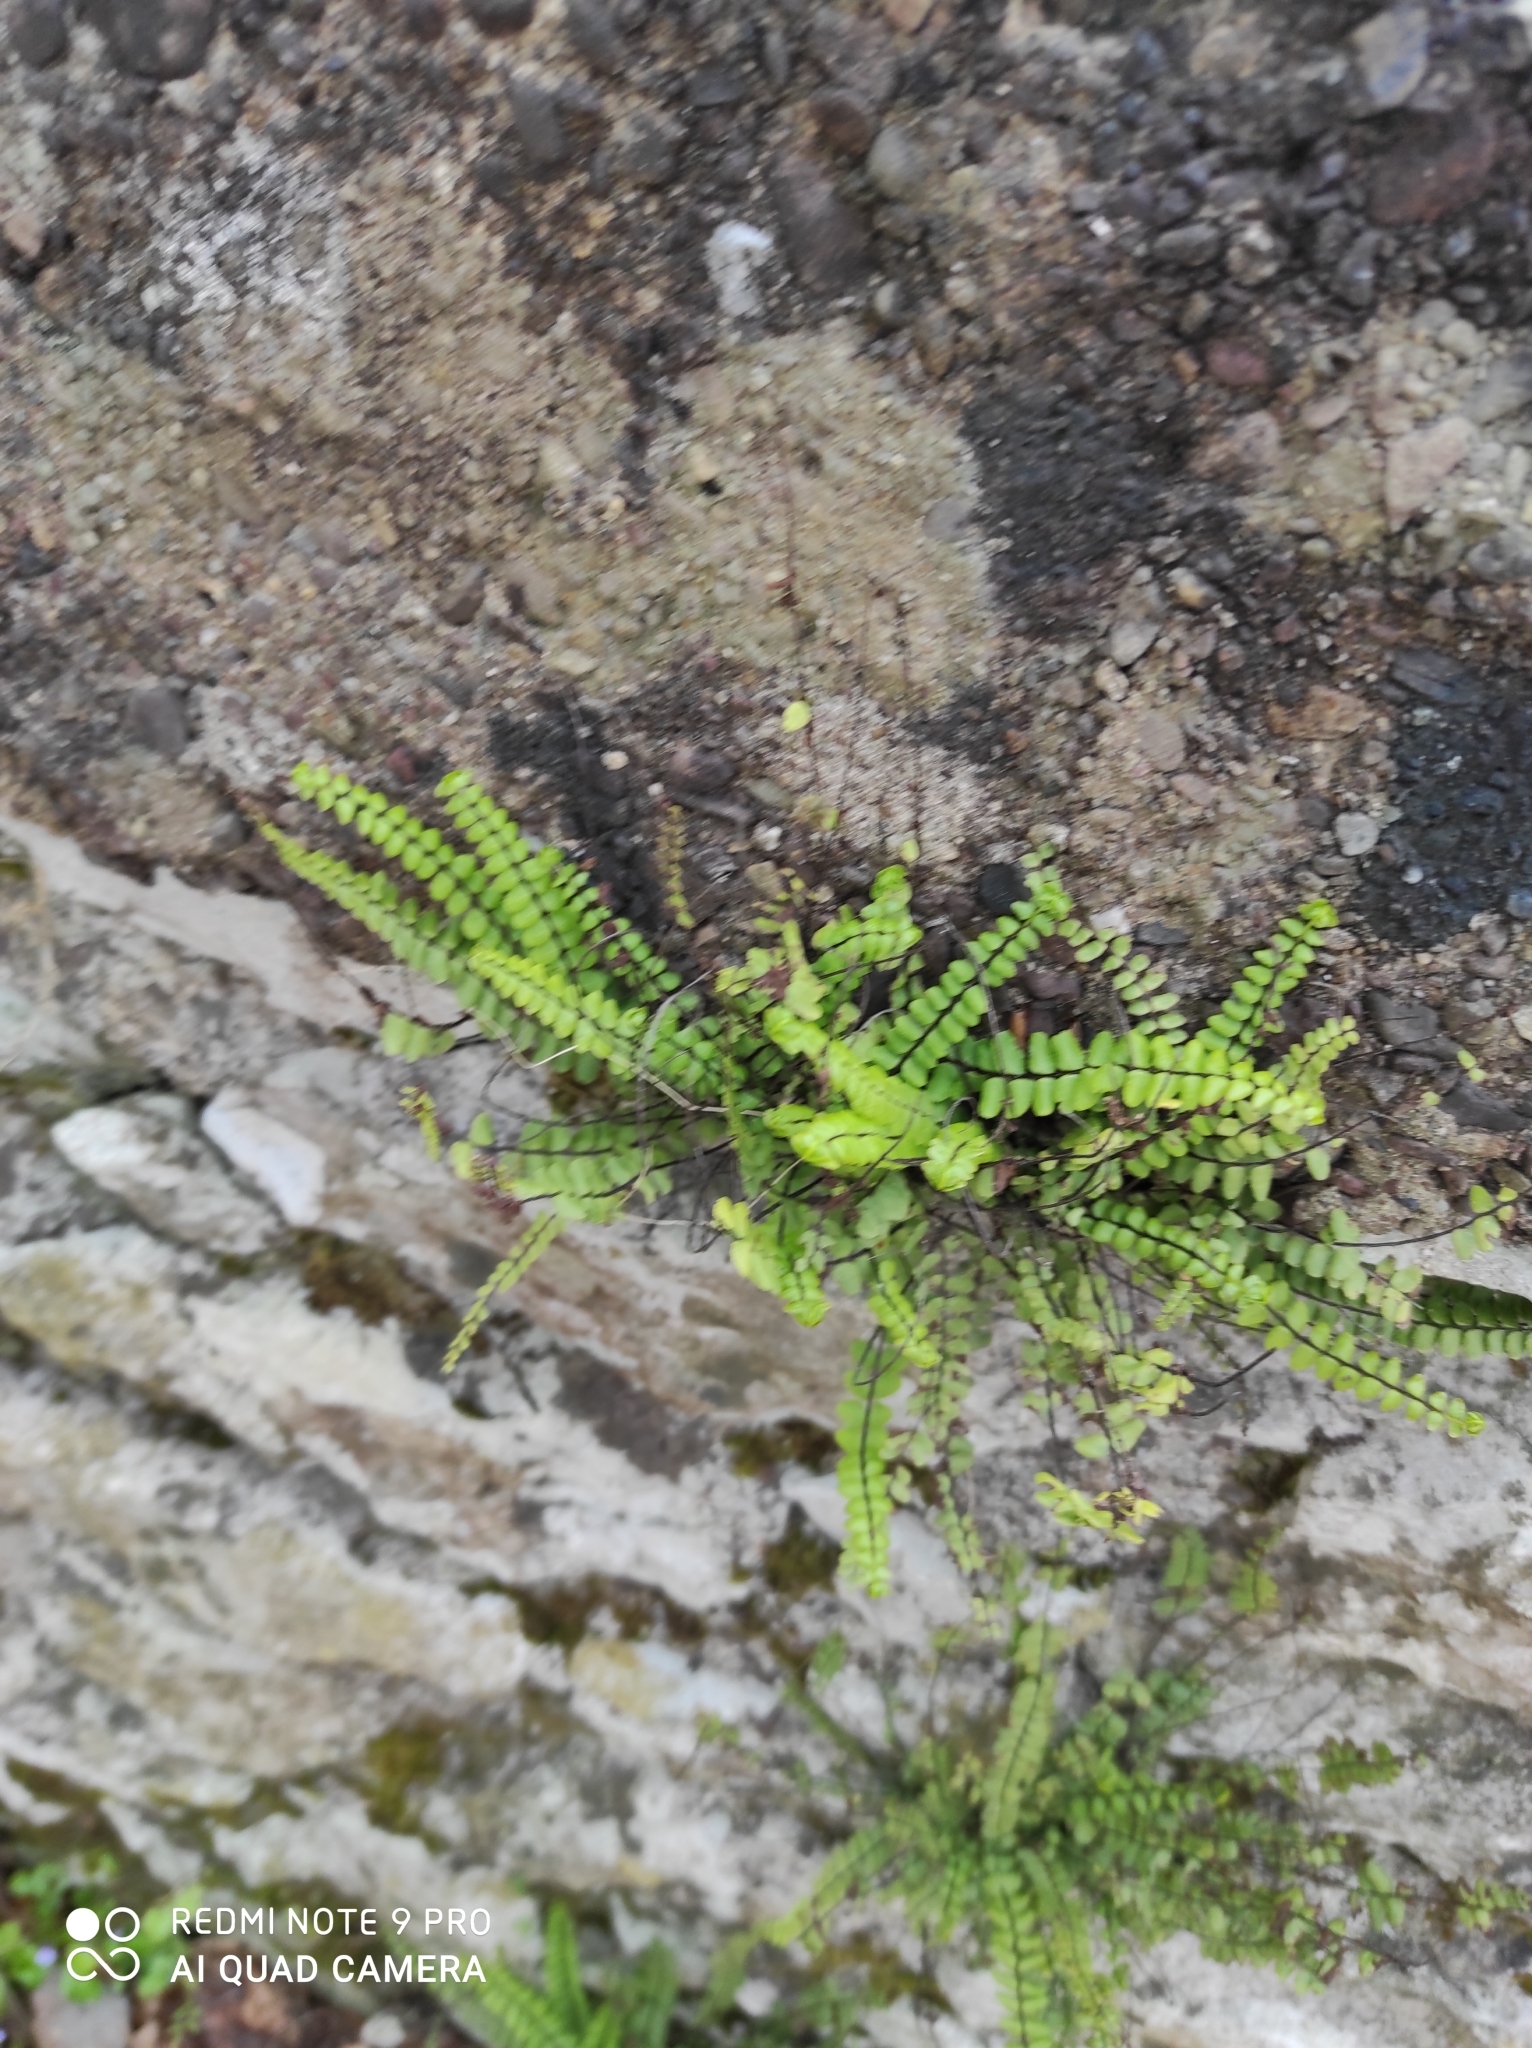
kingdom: Plantae
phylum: Tracheophyta
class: Polypodiopsida
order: Polypodiales
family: Aspleniaceae
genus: Asplenium
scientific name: Asplenium trichomanes
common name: Maidenhair spleenwort
